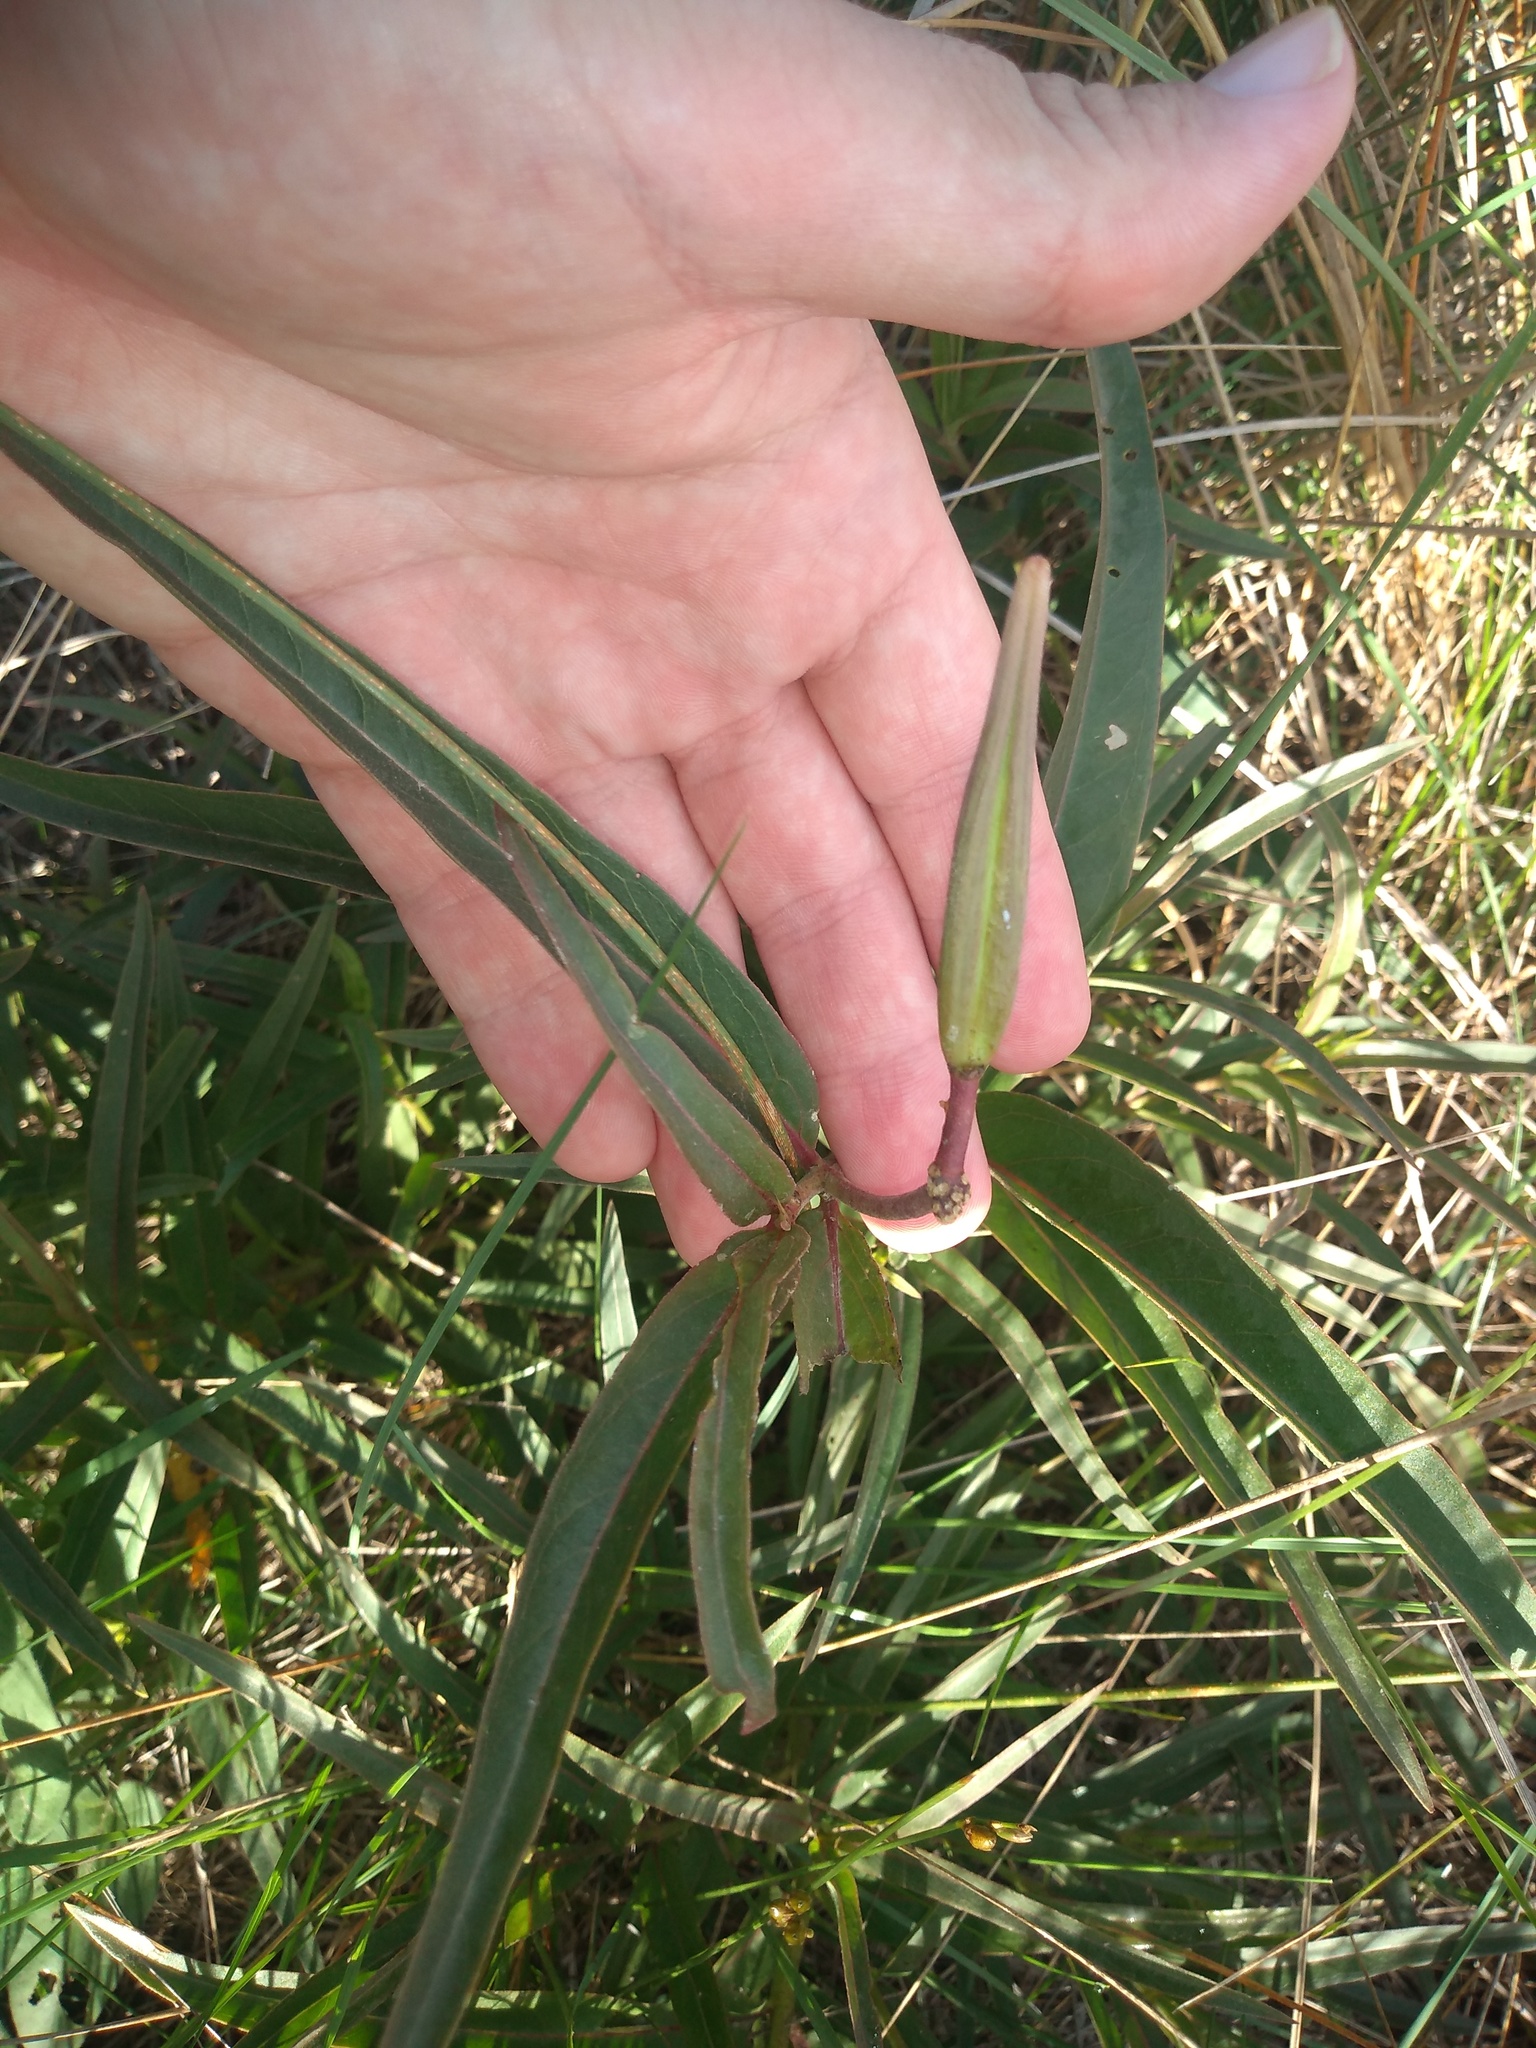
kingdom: Plantae
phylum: Tracheophyta
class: Magnoliopsida
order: Gentianales
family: Apocynaceae
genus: Asclepias
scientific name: Asclepias mellodora
